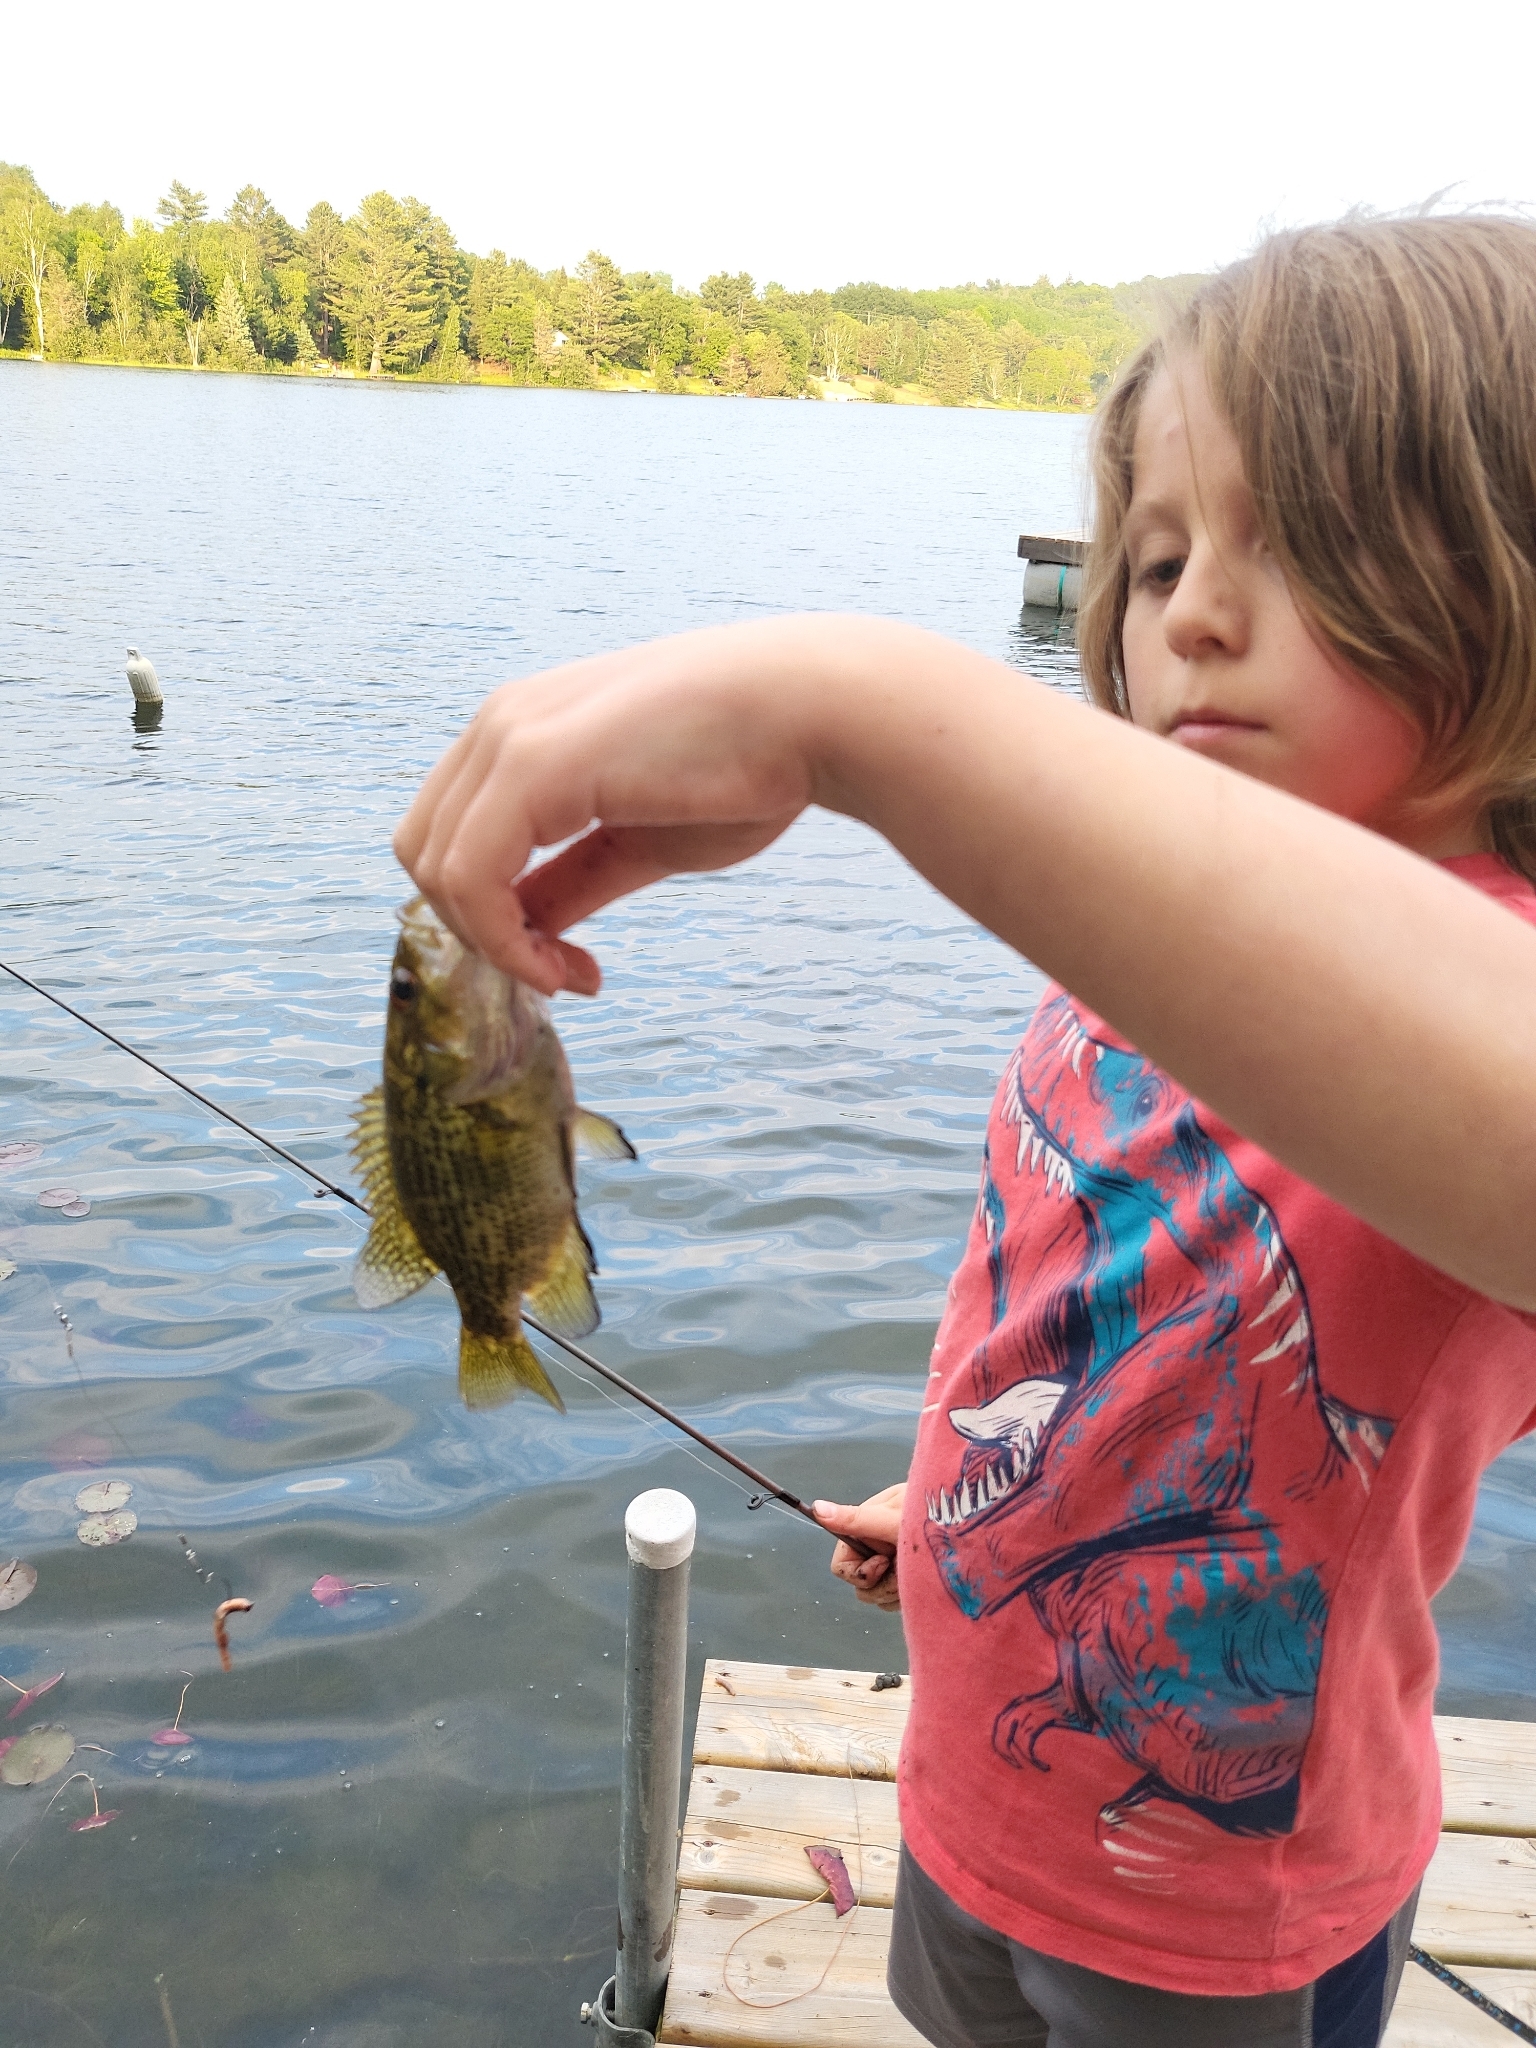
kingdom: Animalia
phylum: Chordata
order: Perciformes
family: Centrarchidae
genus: Ambloplites
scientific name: Ambloplites rupestris
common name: Rock bass
